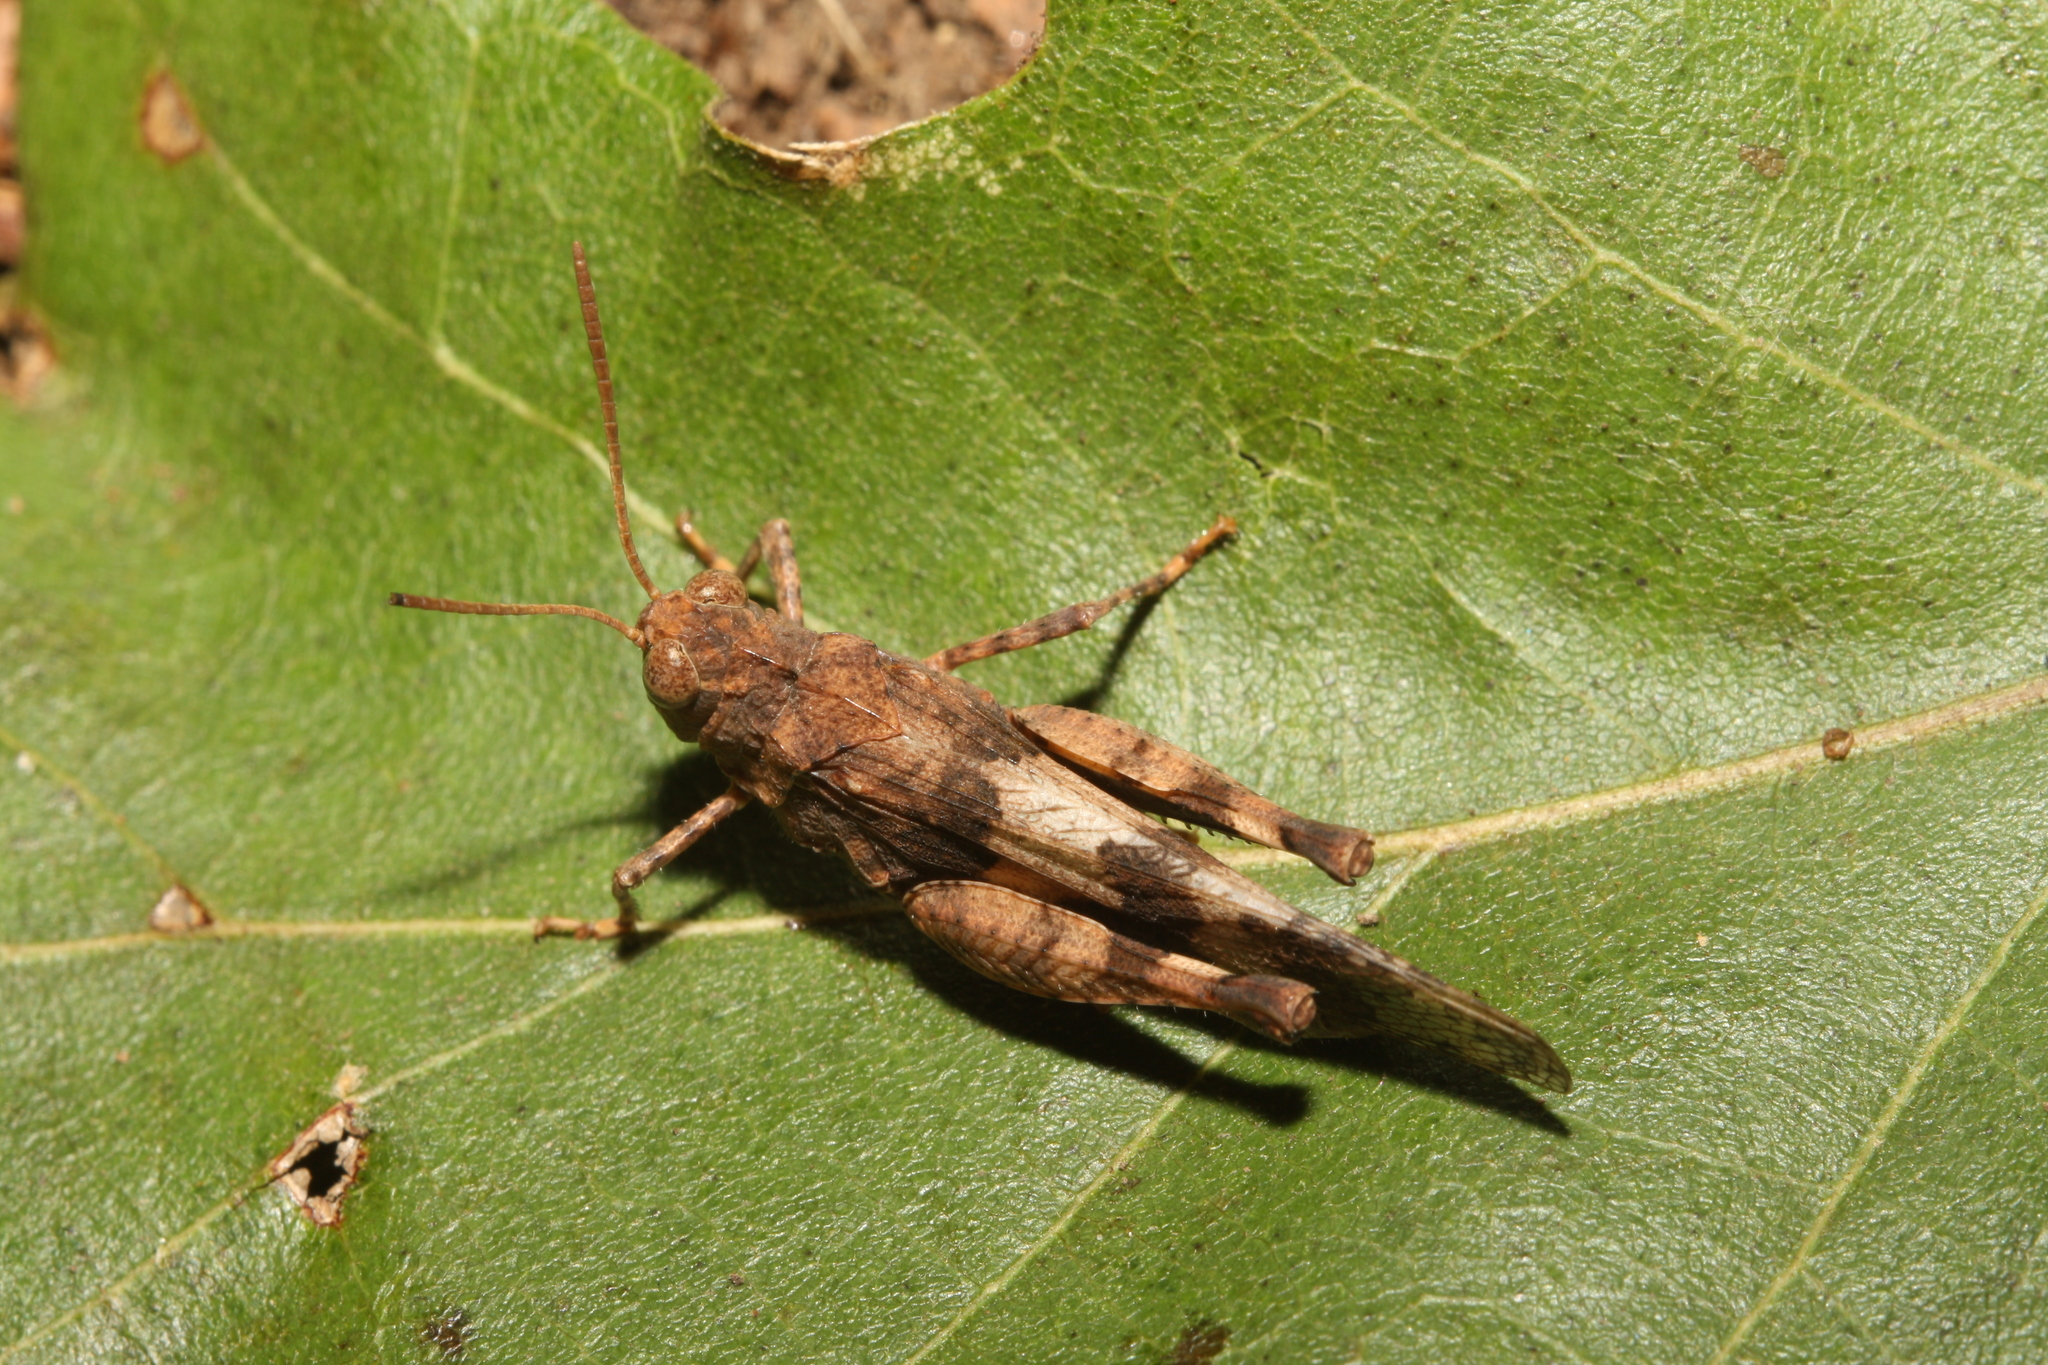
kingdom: Animalia
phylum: Arthropoda
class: Insecta
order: Orthoptera
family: Acrididae
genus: Oedipoda
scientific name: Oedipoda caerulescens
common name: Blue-winged grasshopper
